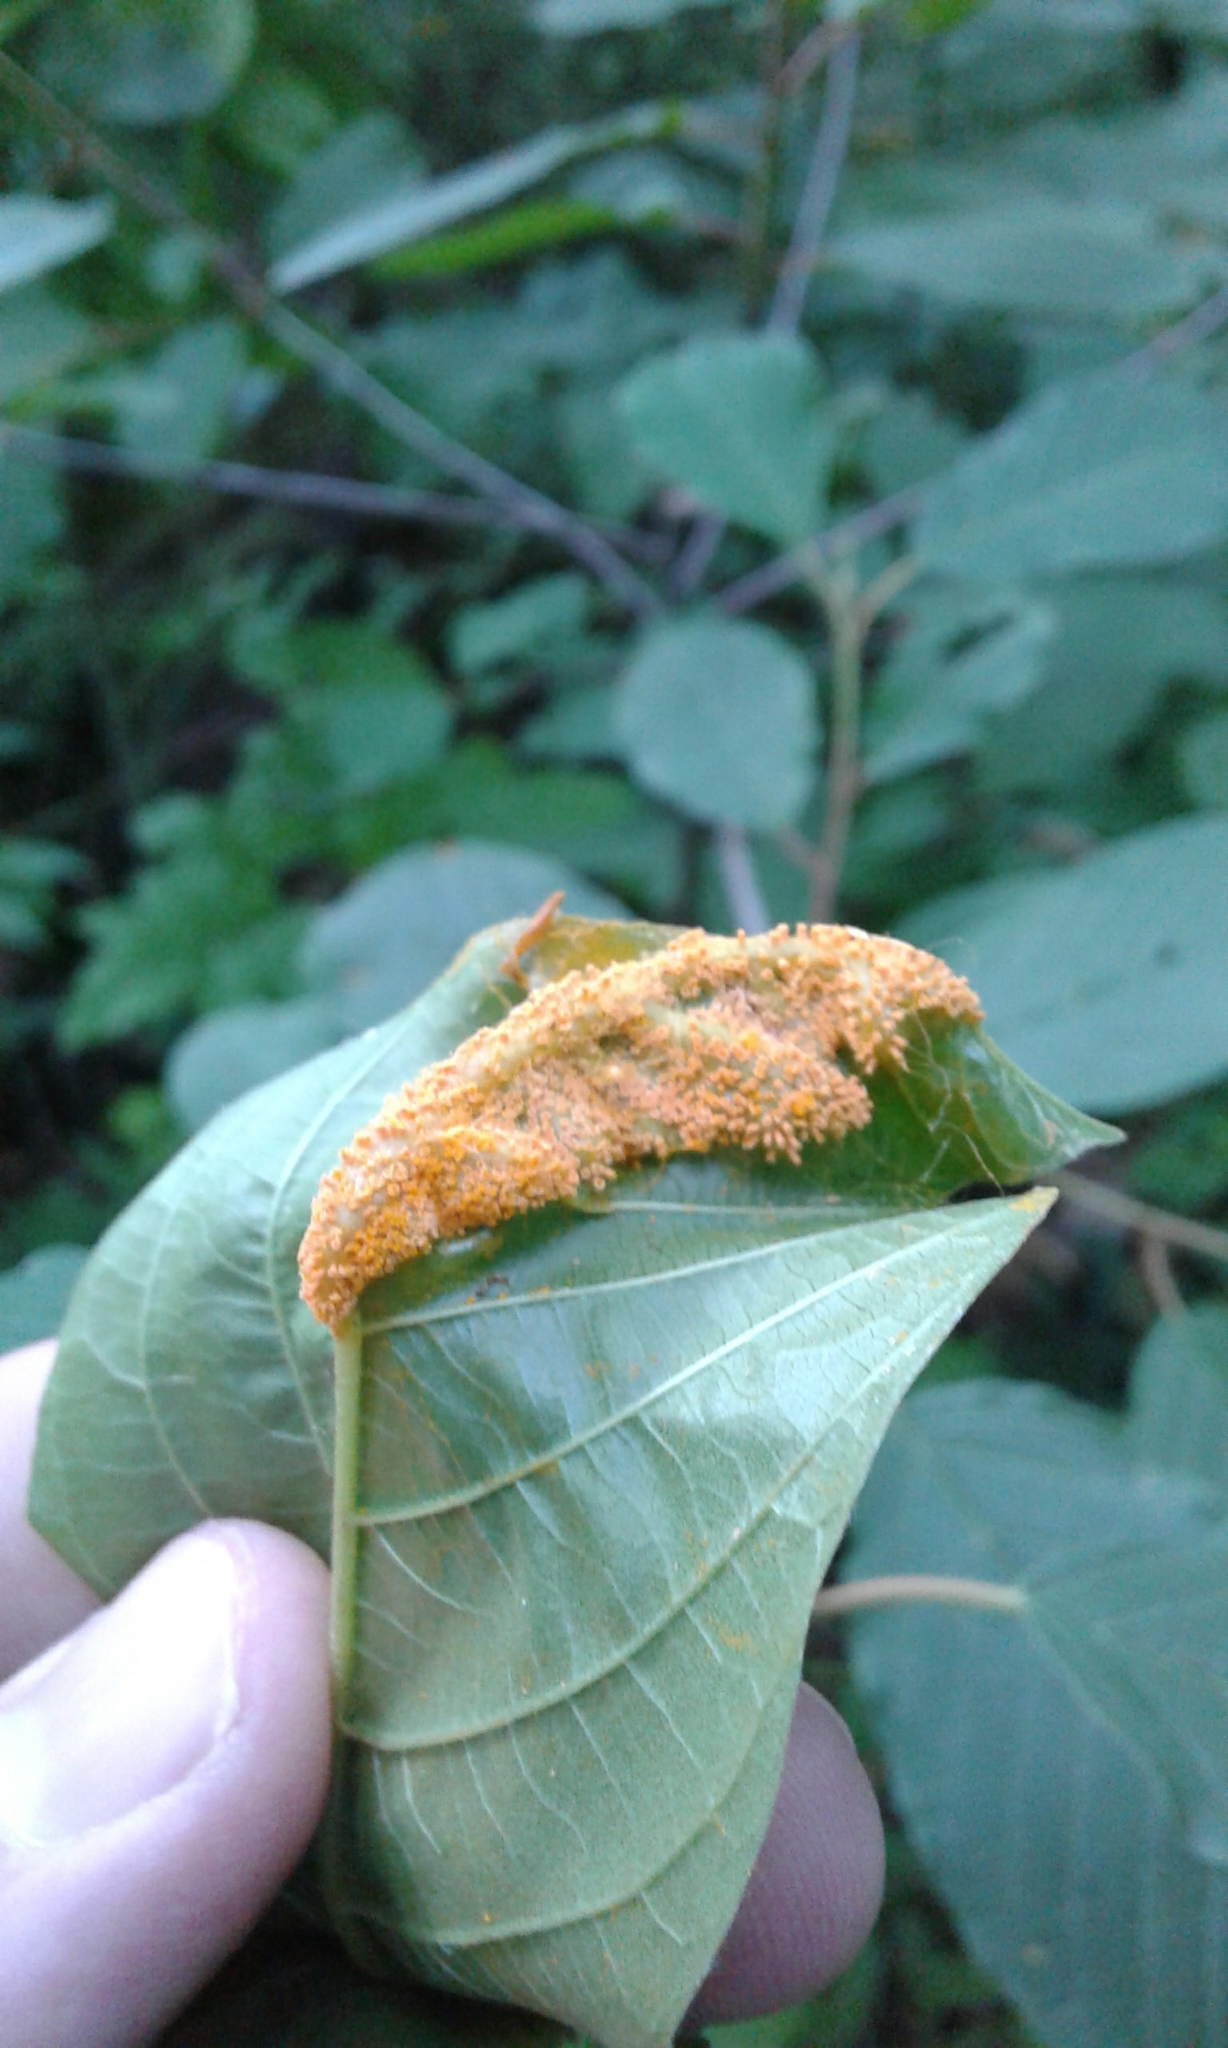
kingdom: Fungi
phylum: Basidiomycota
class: Pucciniomycetes
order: Pucciniales
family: Pucciniaceae
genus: Puccinia
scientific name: Puccinia coronata
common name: Crown rust
